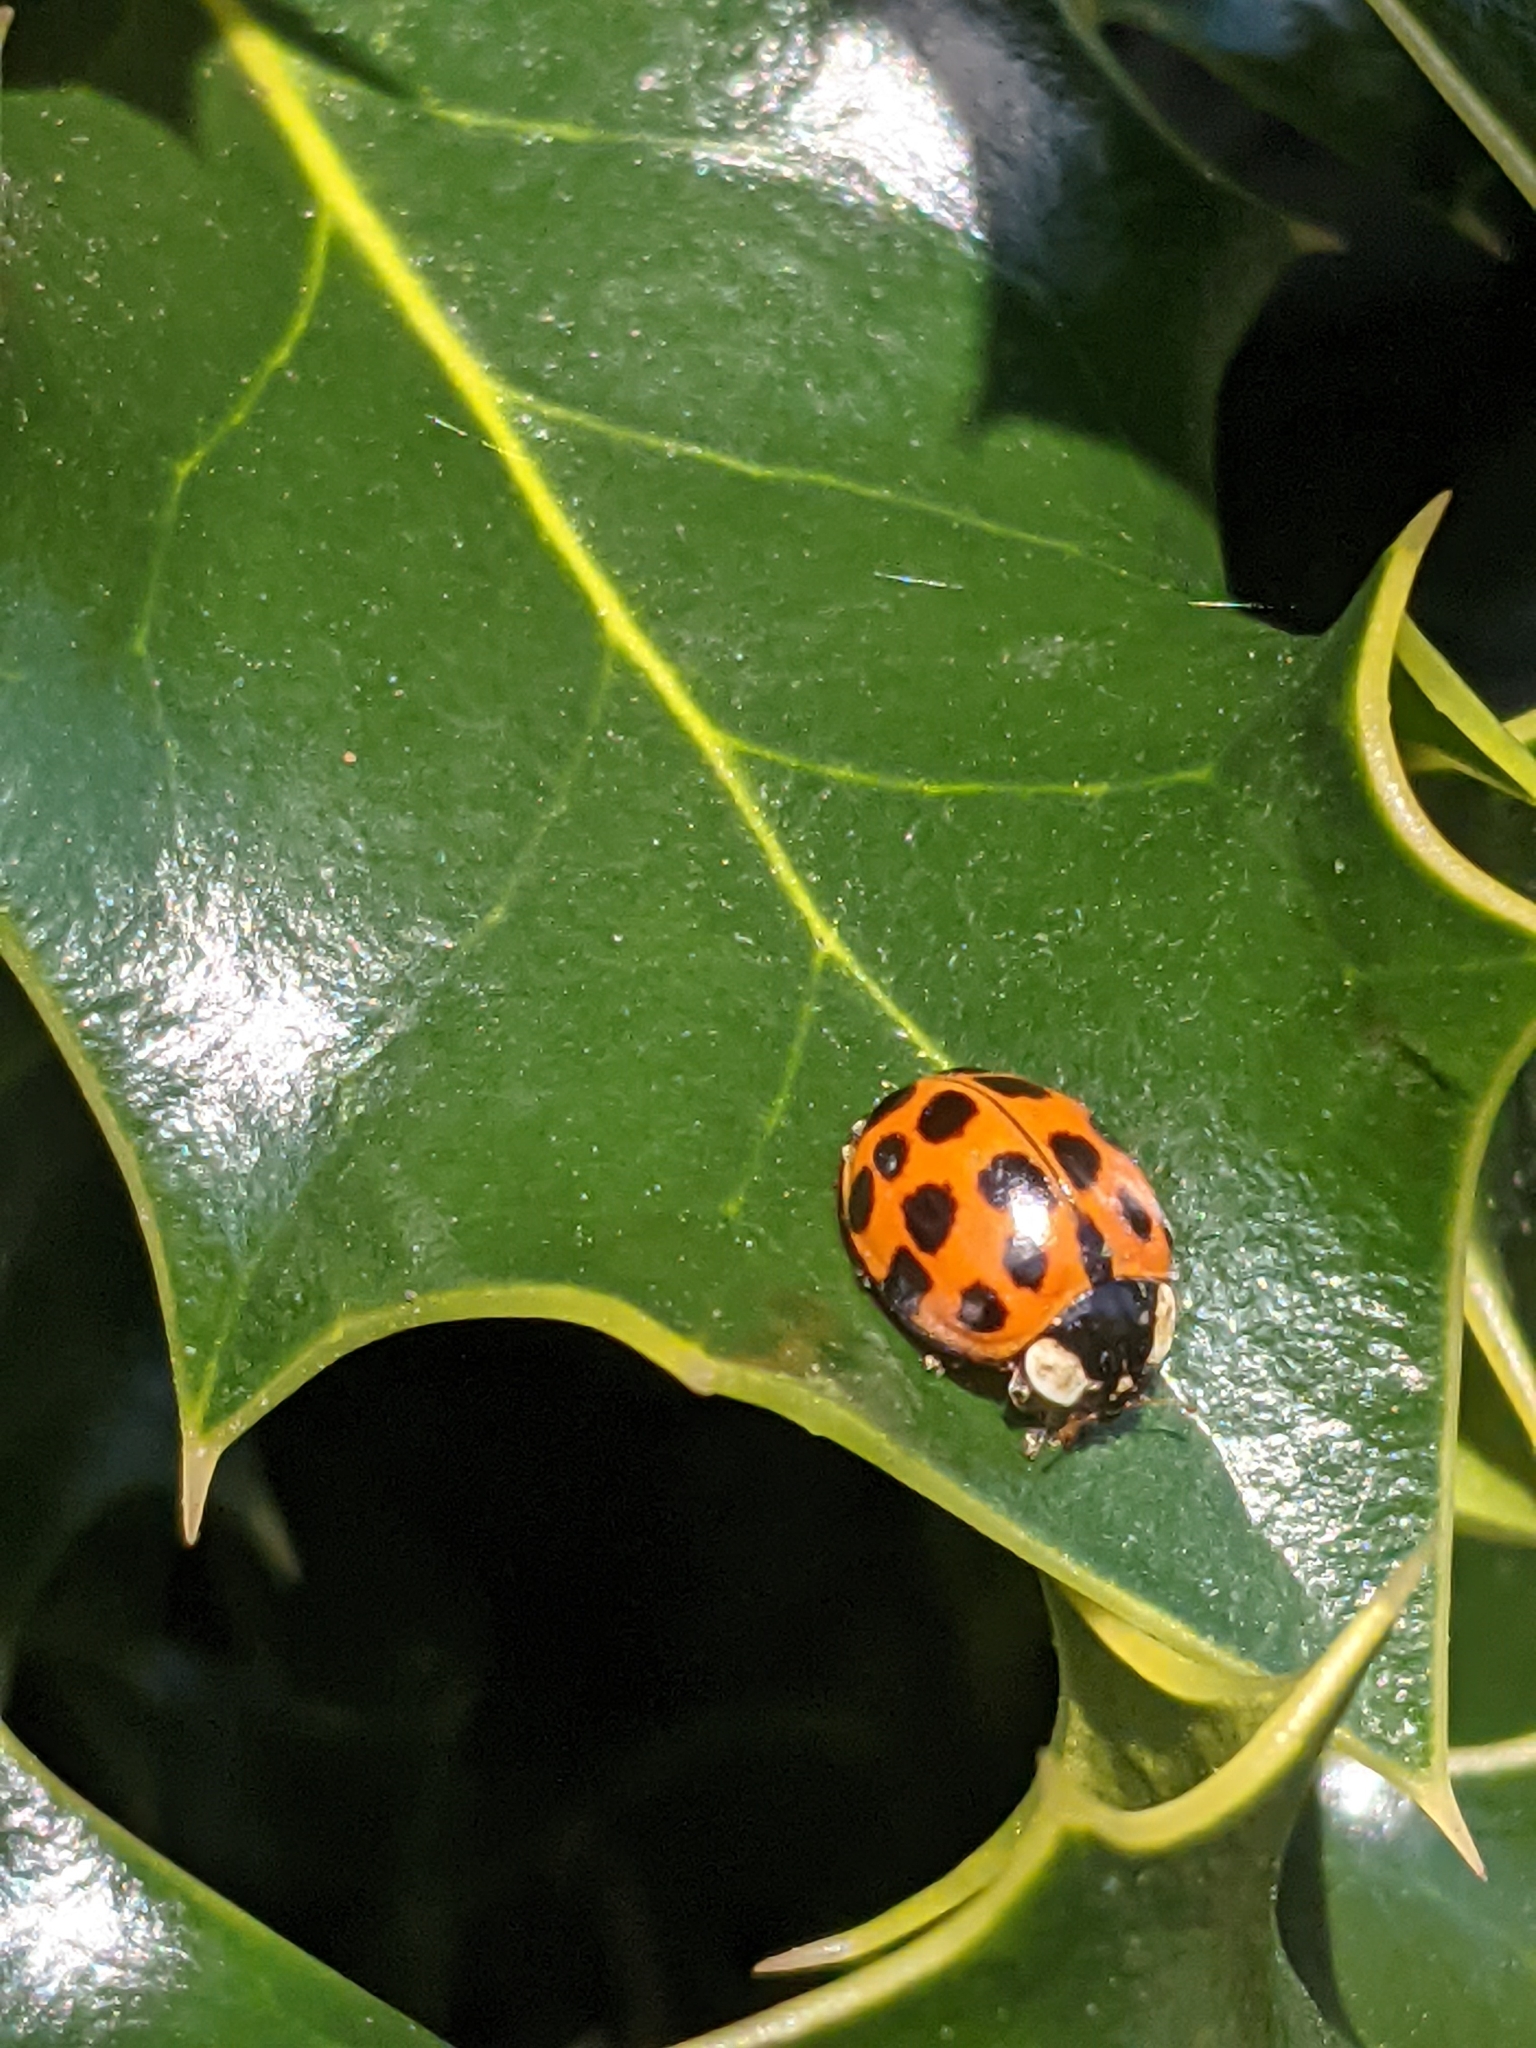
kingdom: Animalia
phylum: Arthropoda
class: Insecta
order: Coleoptera
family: Coccinellidae
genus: Harmonia
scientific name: Harmonia axyridis
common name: Harlequin ladybird
